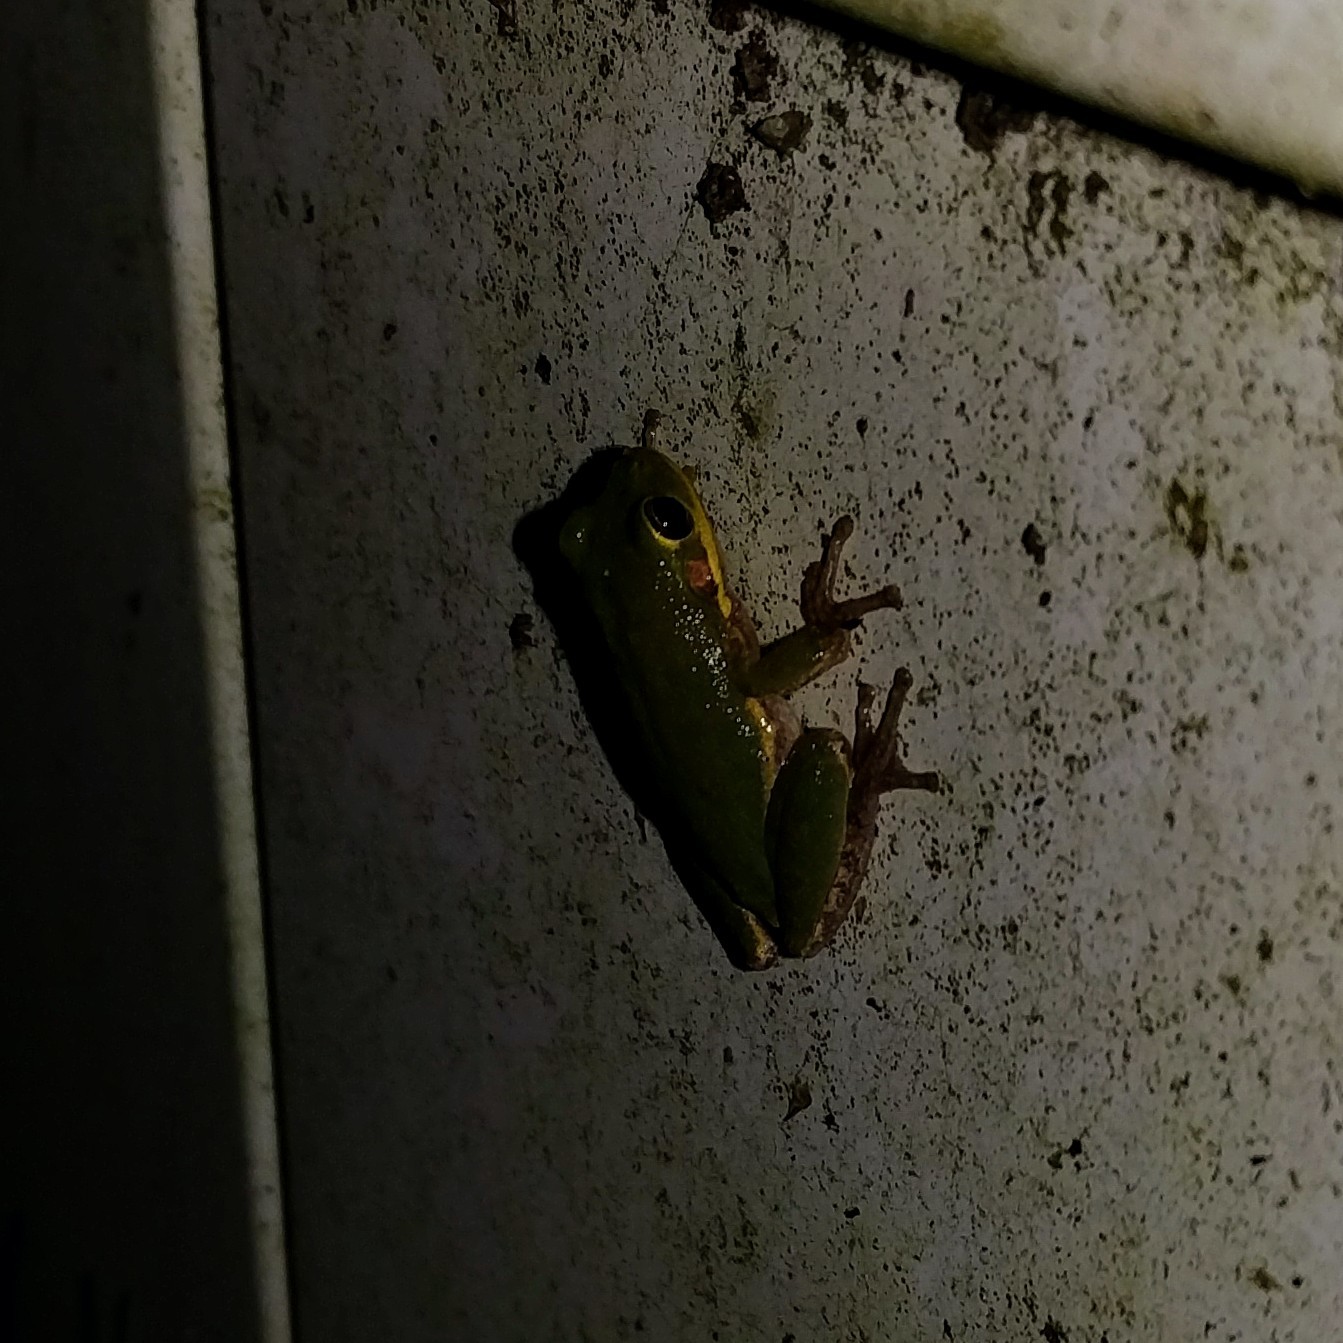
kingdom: Animalia
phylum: Chordata
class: Amphibia
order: Anura
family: Hylidae
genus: Dryophytes
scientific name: Dryophytes squirellus
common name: Squirrel treefrog
